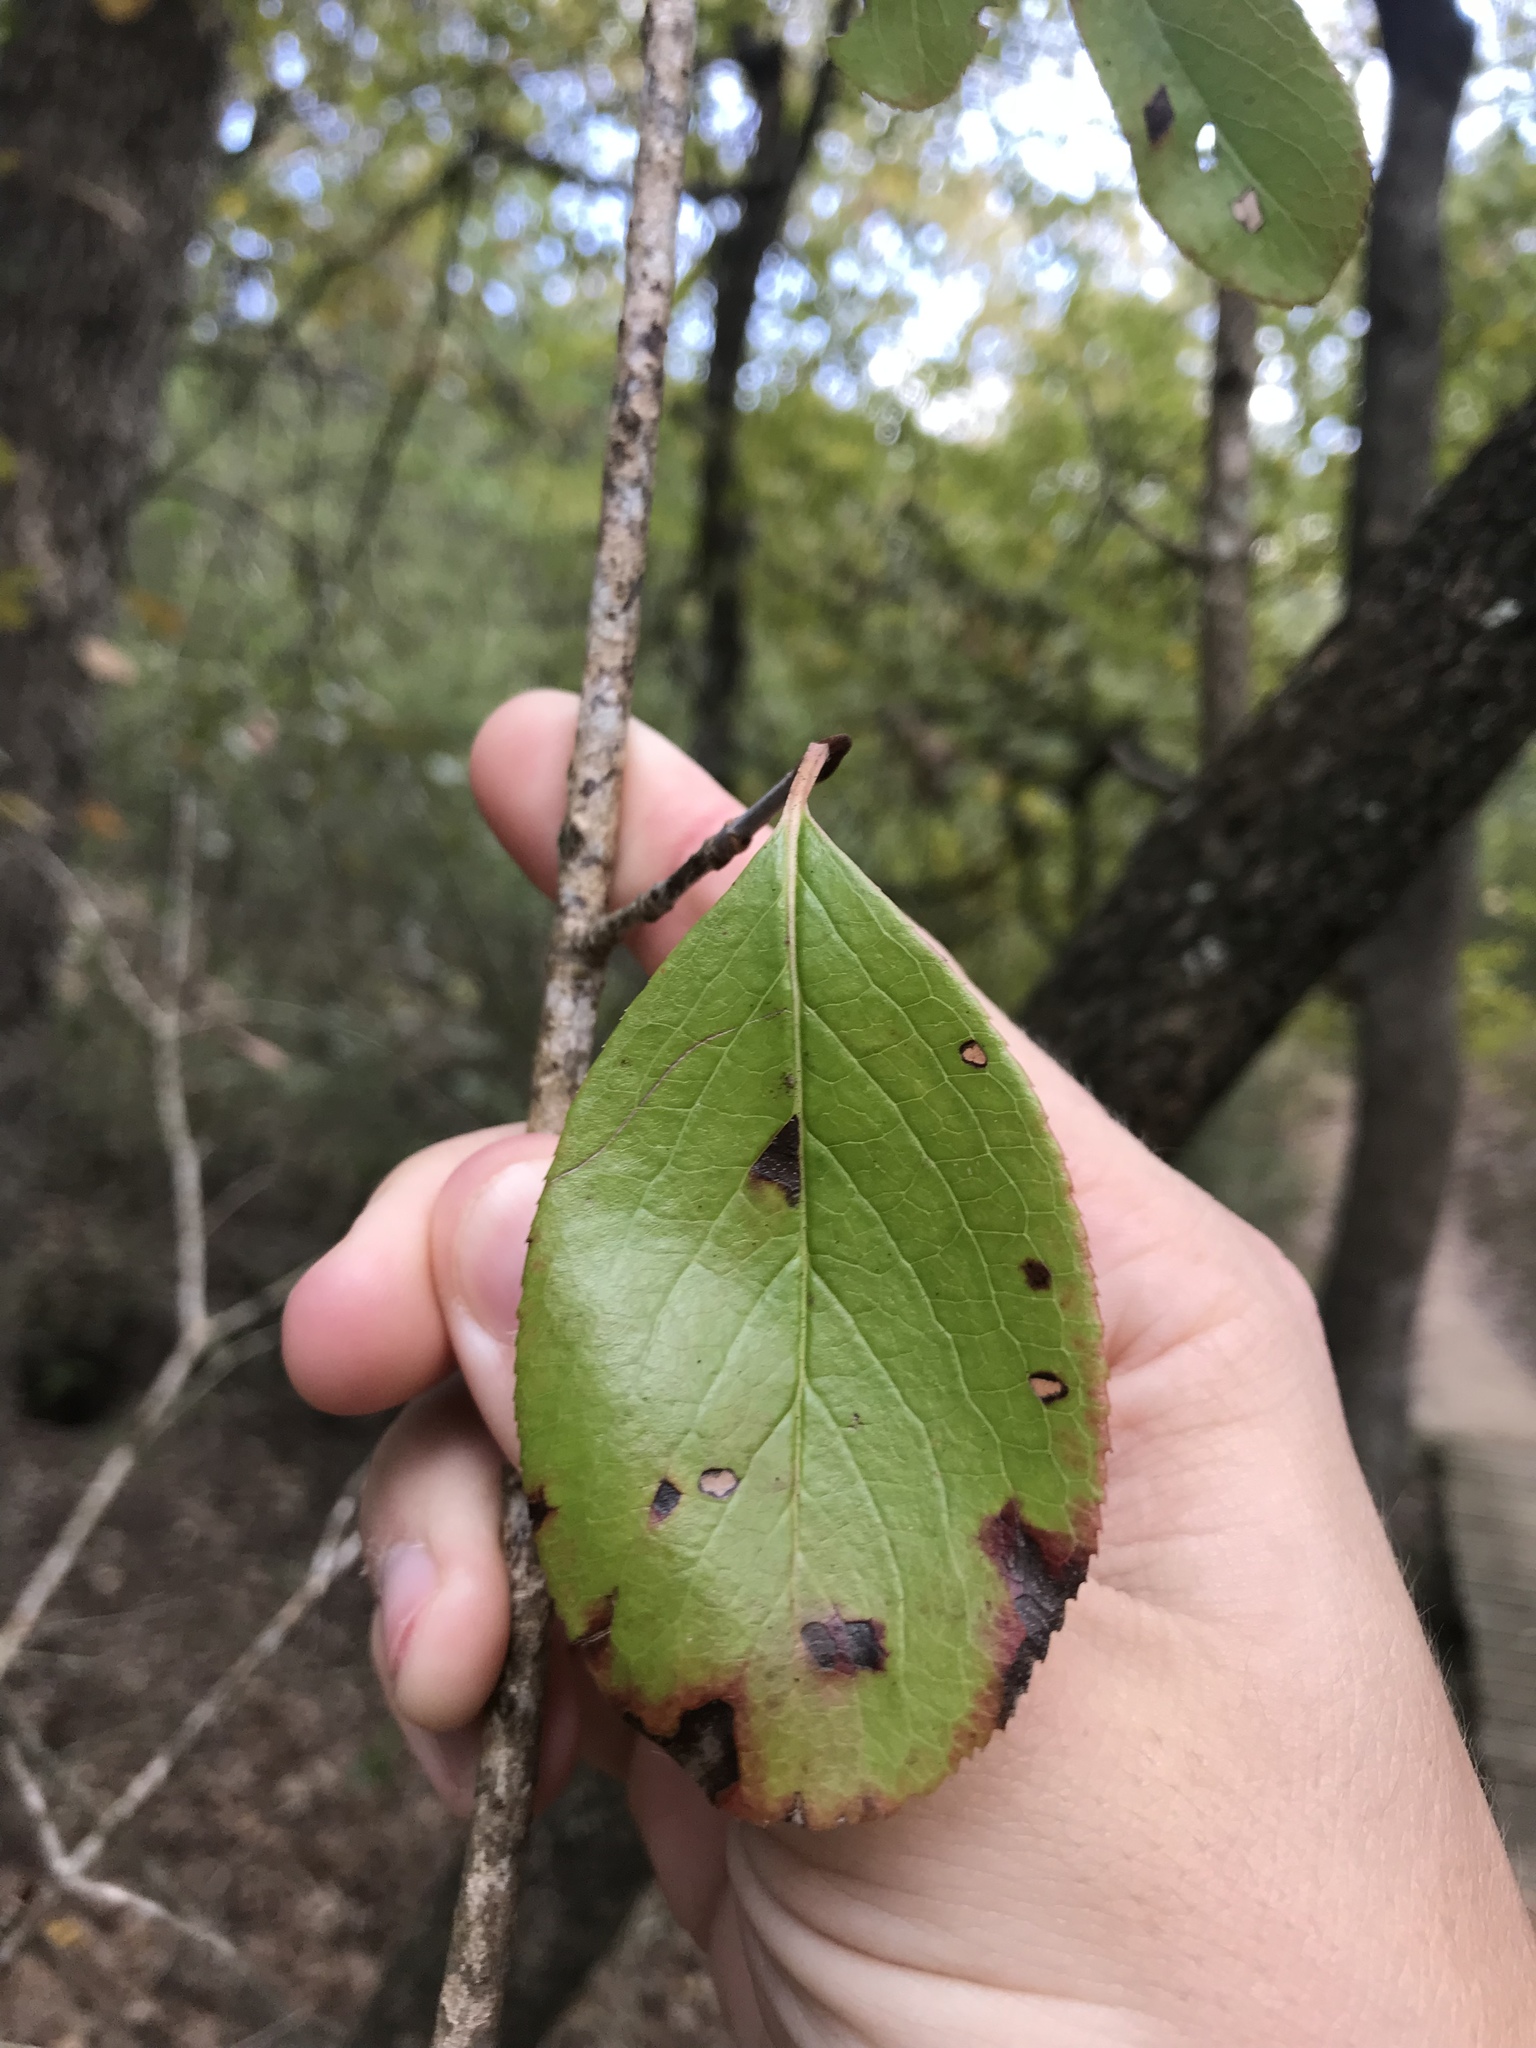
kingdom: Plantae
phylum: Tracheophyta
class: Magnoliopsida
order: Dipsacales
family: Viburnaceae
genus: Viburnum
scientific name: Viburnum rufidulum
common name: Blue haw
